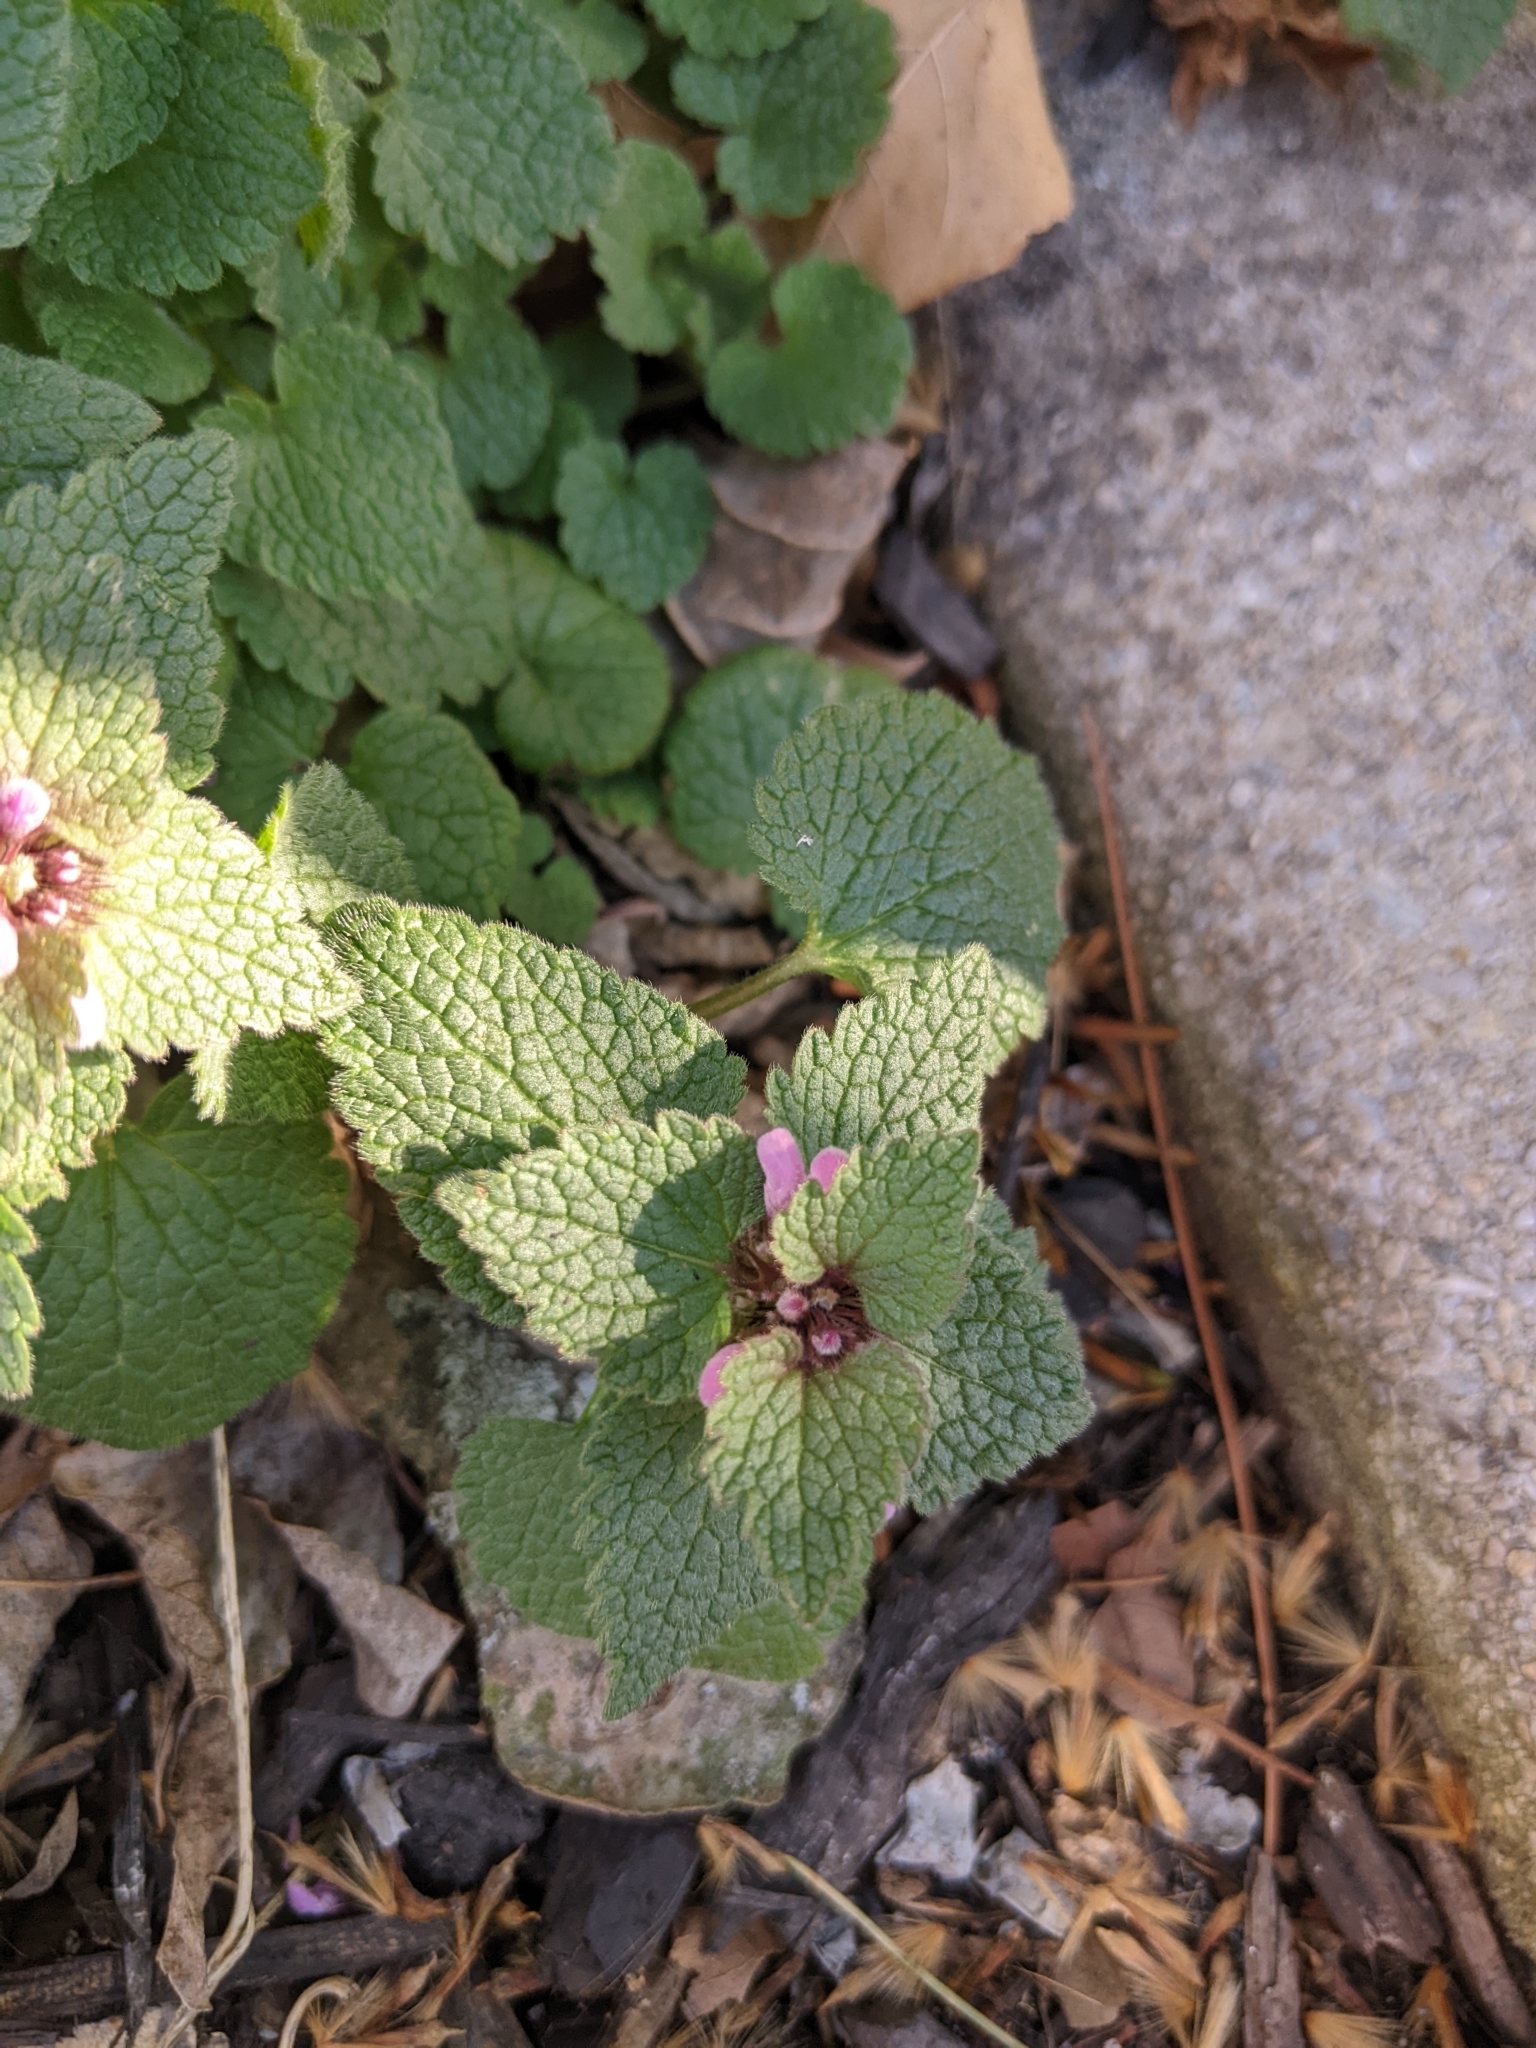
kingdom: Plantae
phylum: Tracheophyta
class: Magnoliopsida
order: Lamiales
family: Lamiaceae
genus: Lamium
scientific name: Lamium purpureum
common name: Red dead-nettle
